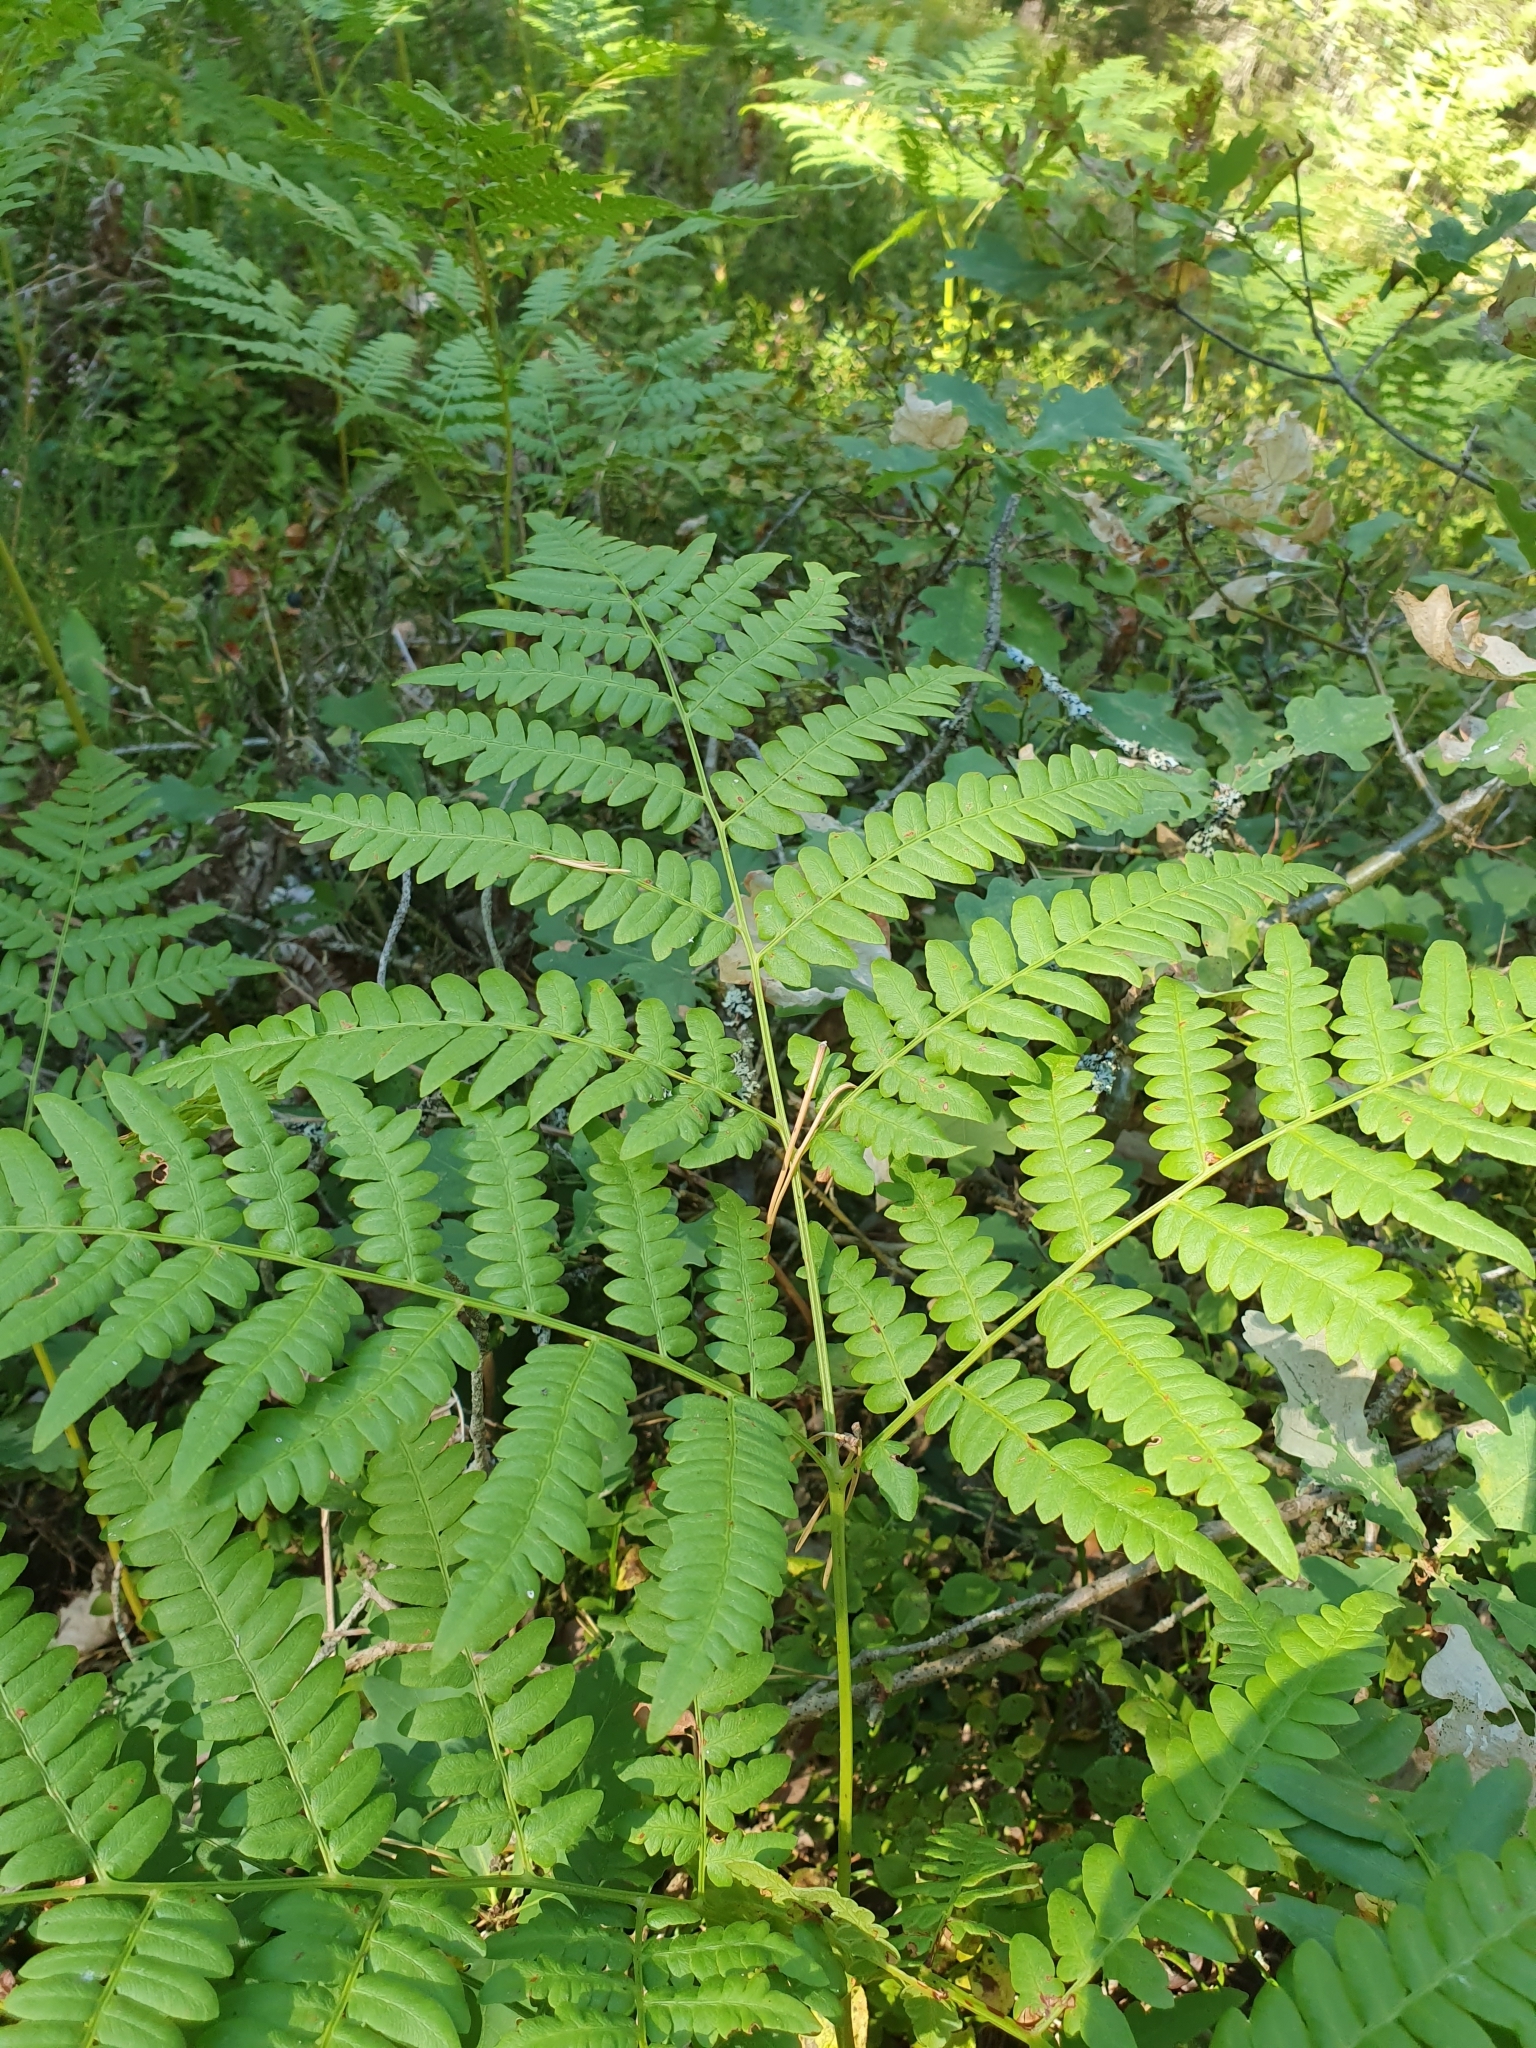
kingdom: Plantae
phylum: Tracheophyta
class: Polypodiopsida
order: Polypodiales
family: Dennstaedtiaceae
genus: Pteridium
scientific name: Pteridium aquilinum
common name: Bracken
